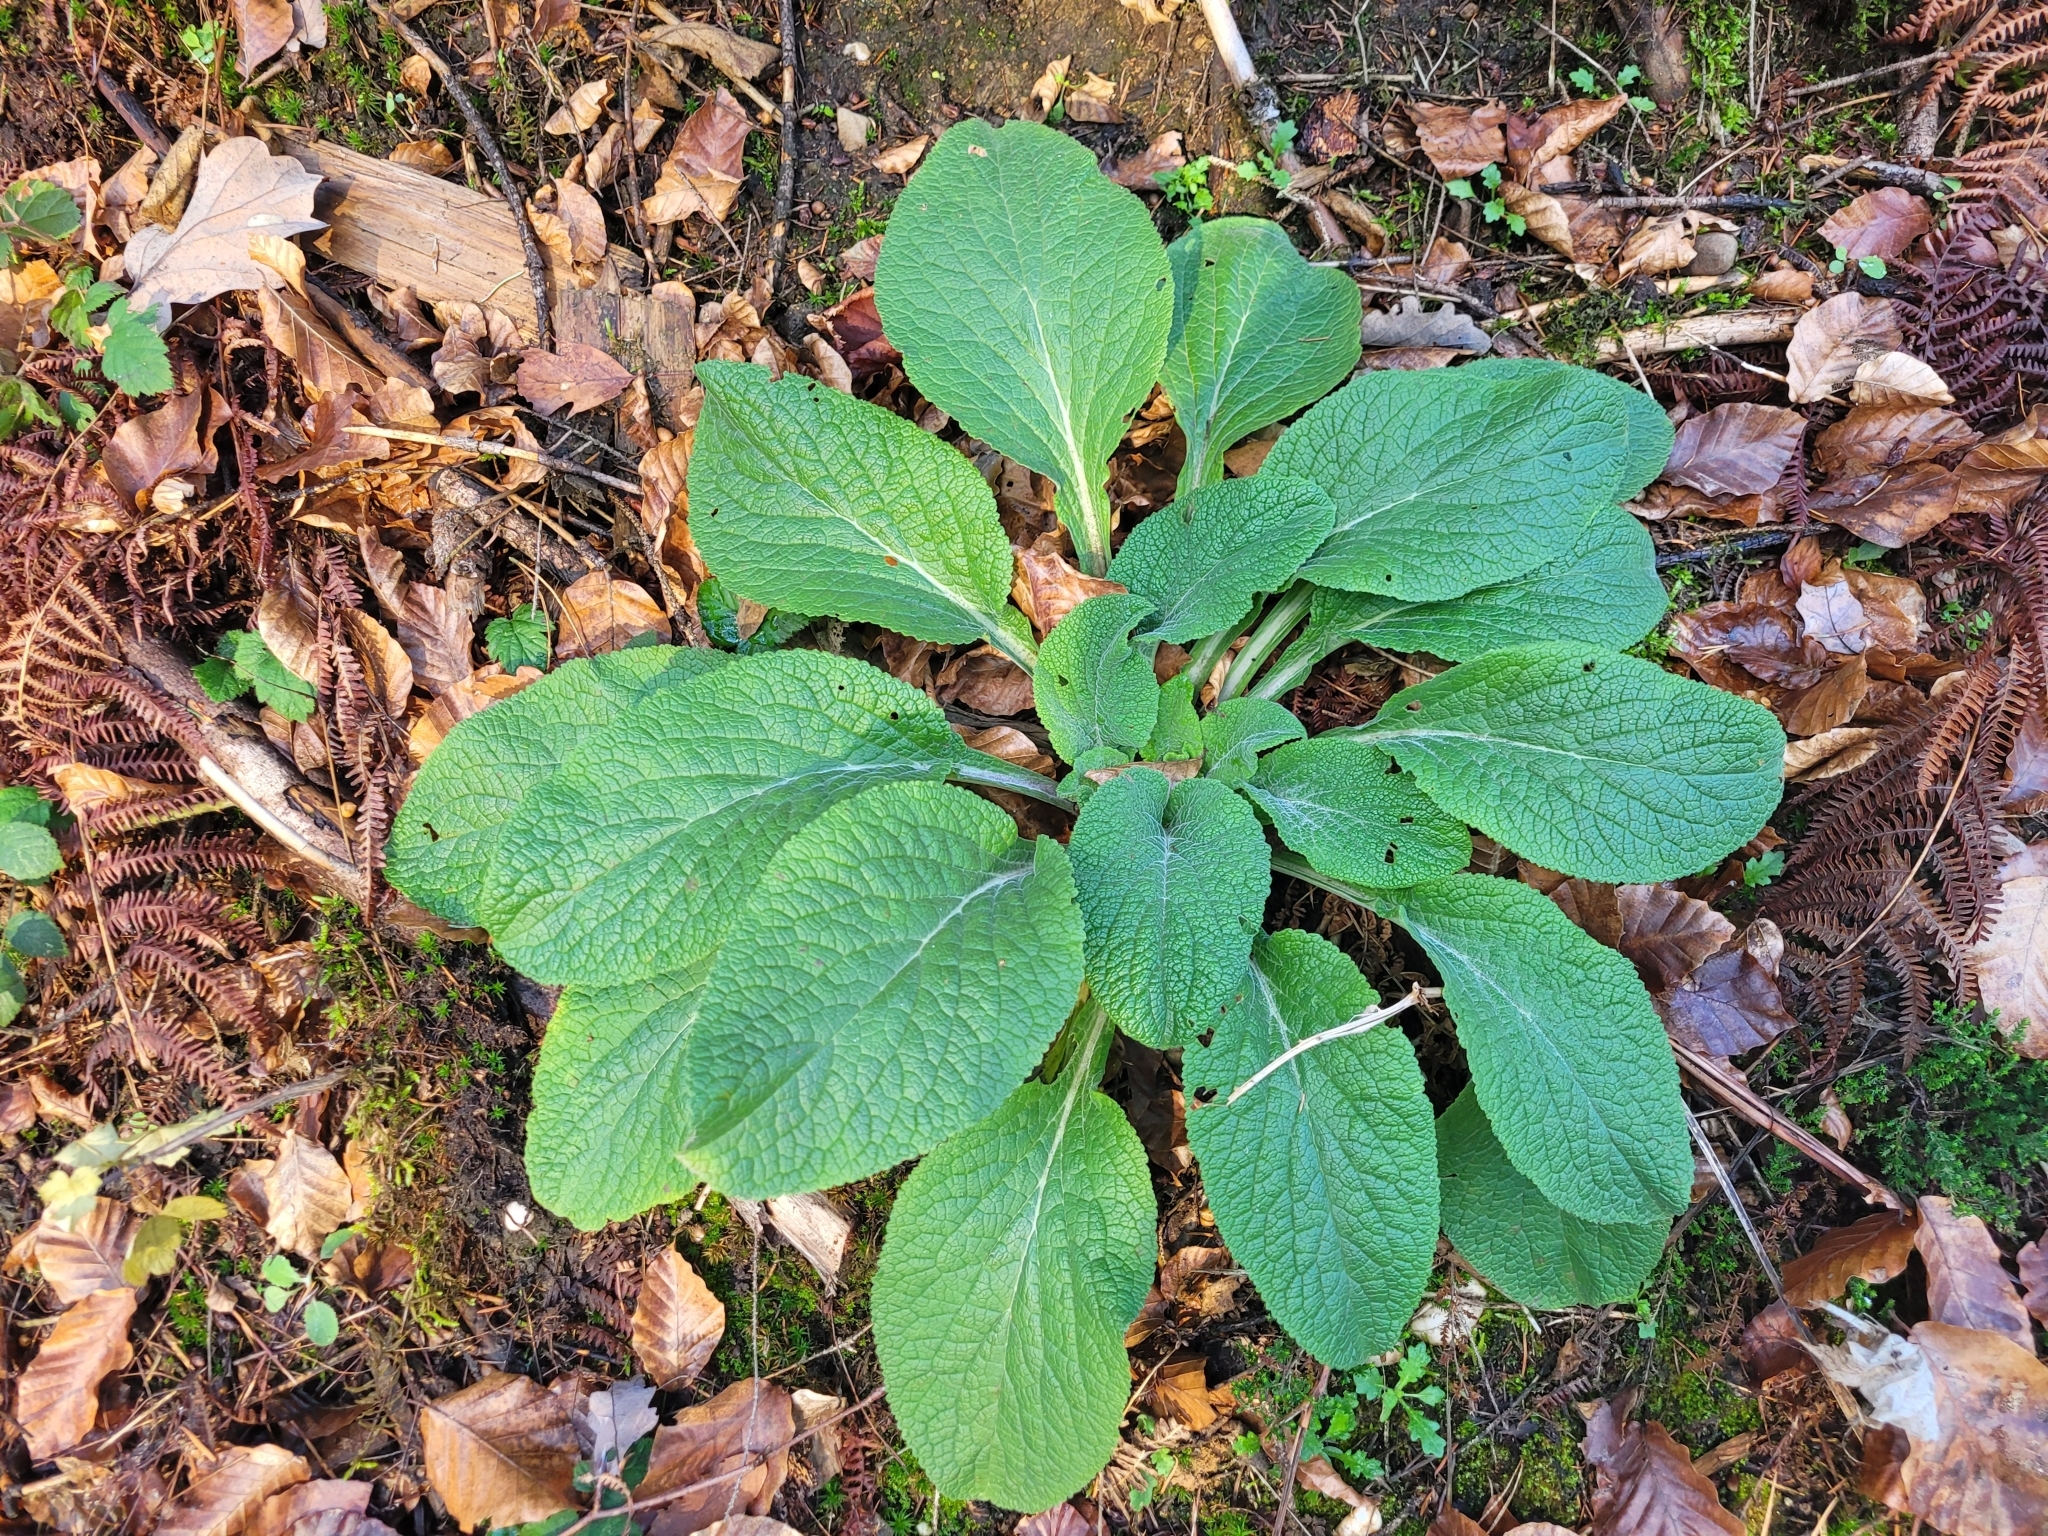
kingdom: Plantae
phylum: Tracheophyta
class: Magnoliopsida
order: Lamiales
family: Plantaginaceae
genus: Digitalis
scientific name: Digitalis purpurea
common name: Foxglove
